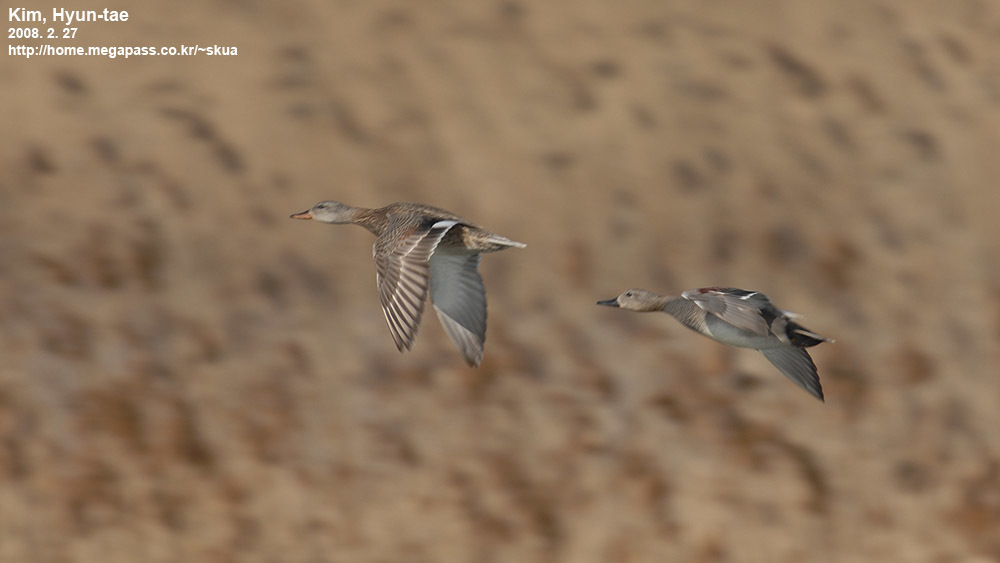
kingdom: Animalia
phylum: Chordata
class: Aves
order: Anseriformes
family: Anatidae
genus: Mareca
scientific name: Mareca strepera
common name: Gadwall
